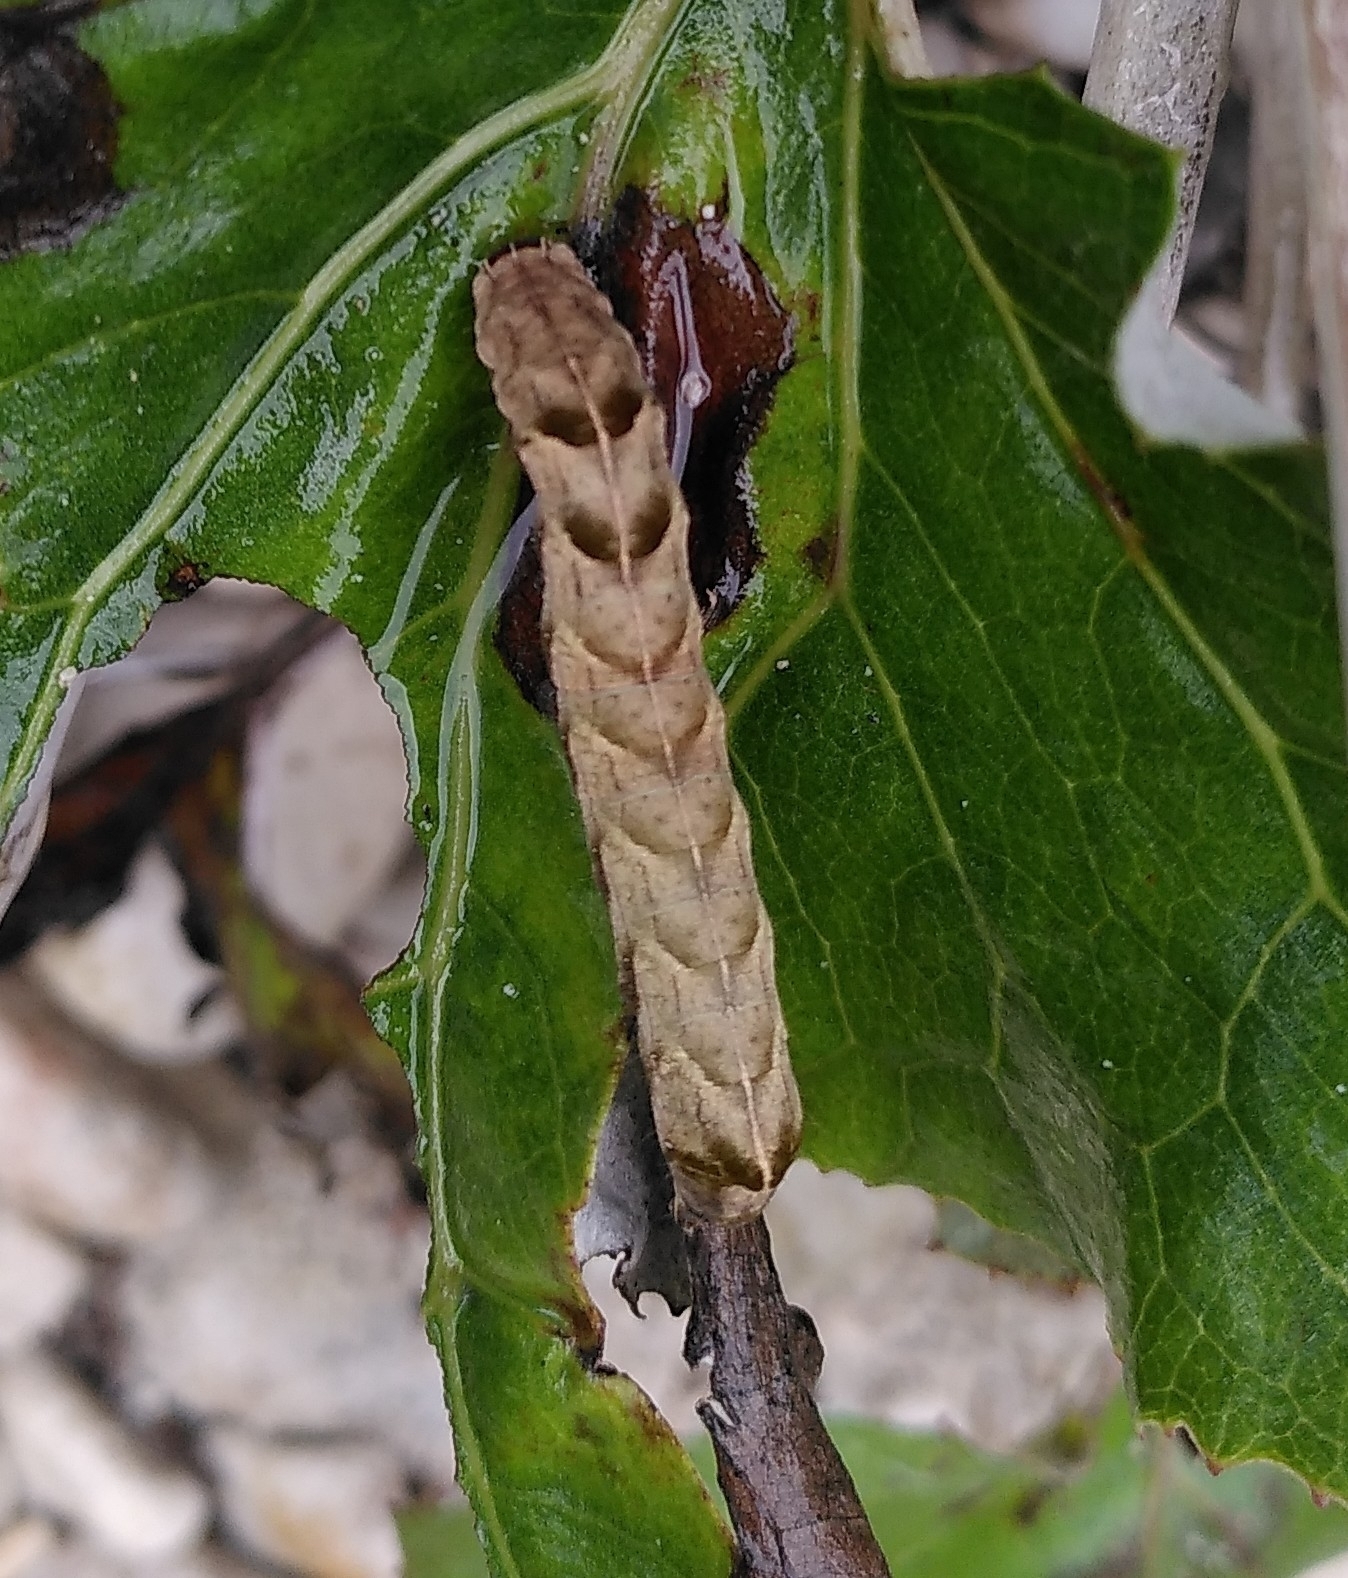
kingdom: Animalia
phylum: Arthropoda
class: Insecta
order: Lepidoptera
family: Noctuidae
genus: Melanchra
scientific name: Melanchra persicariae
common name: Dot moth
